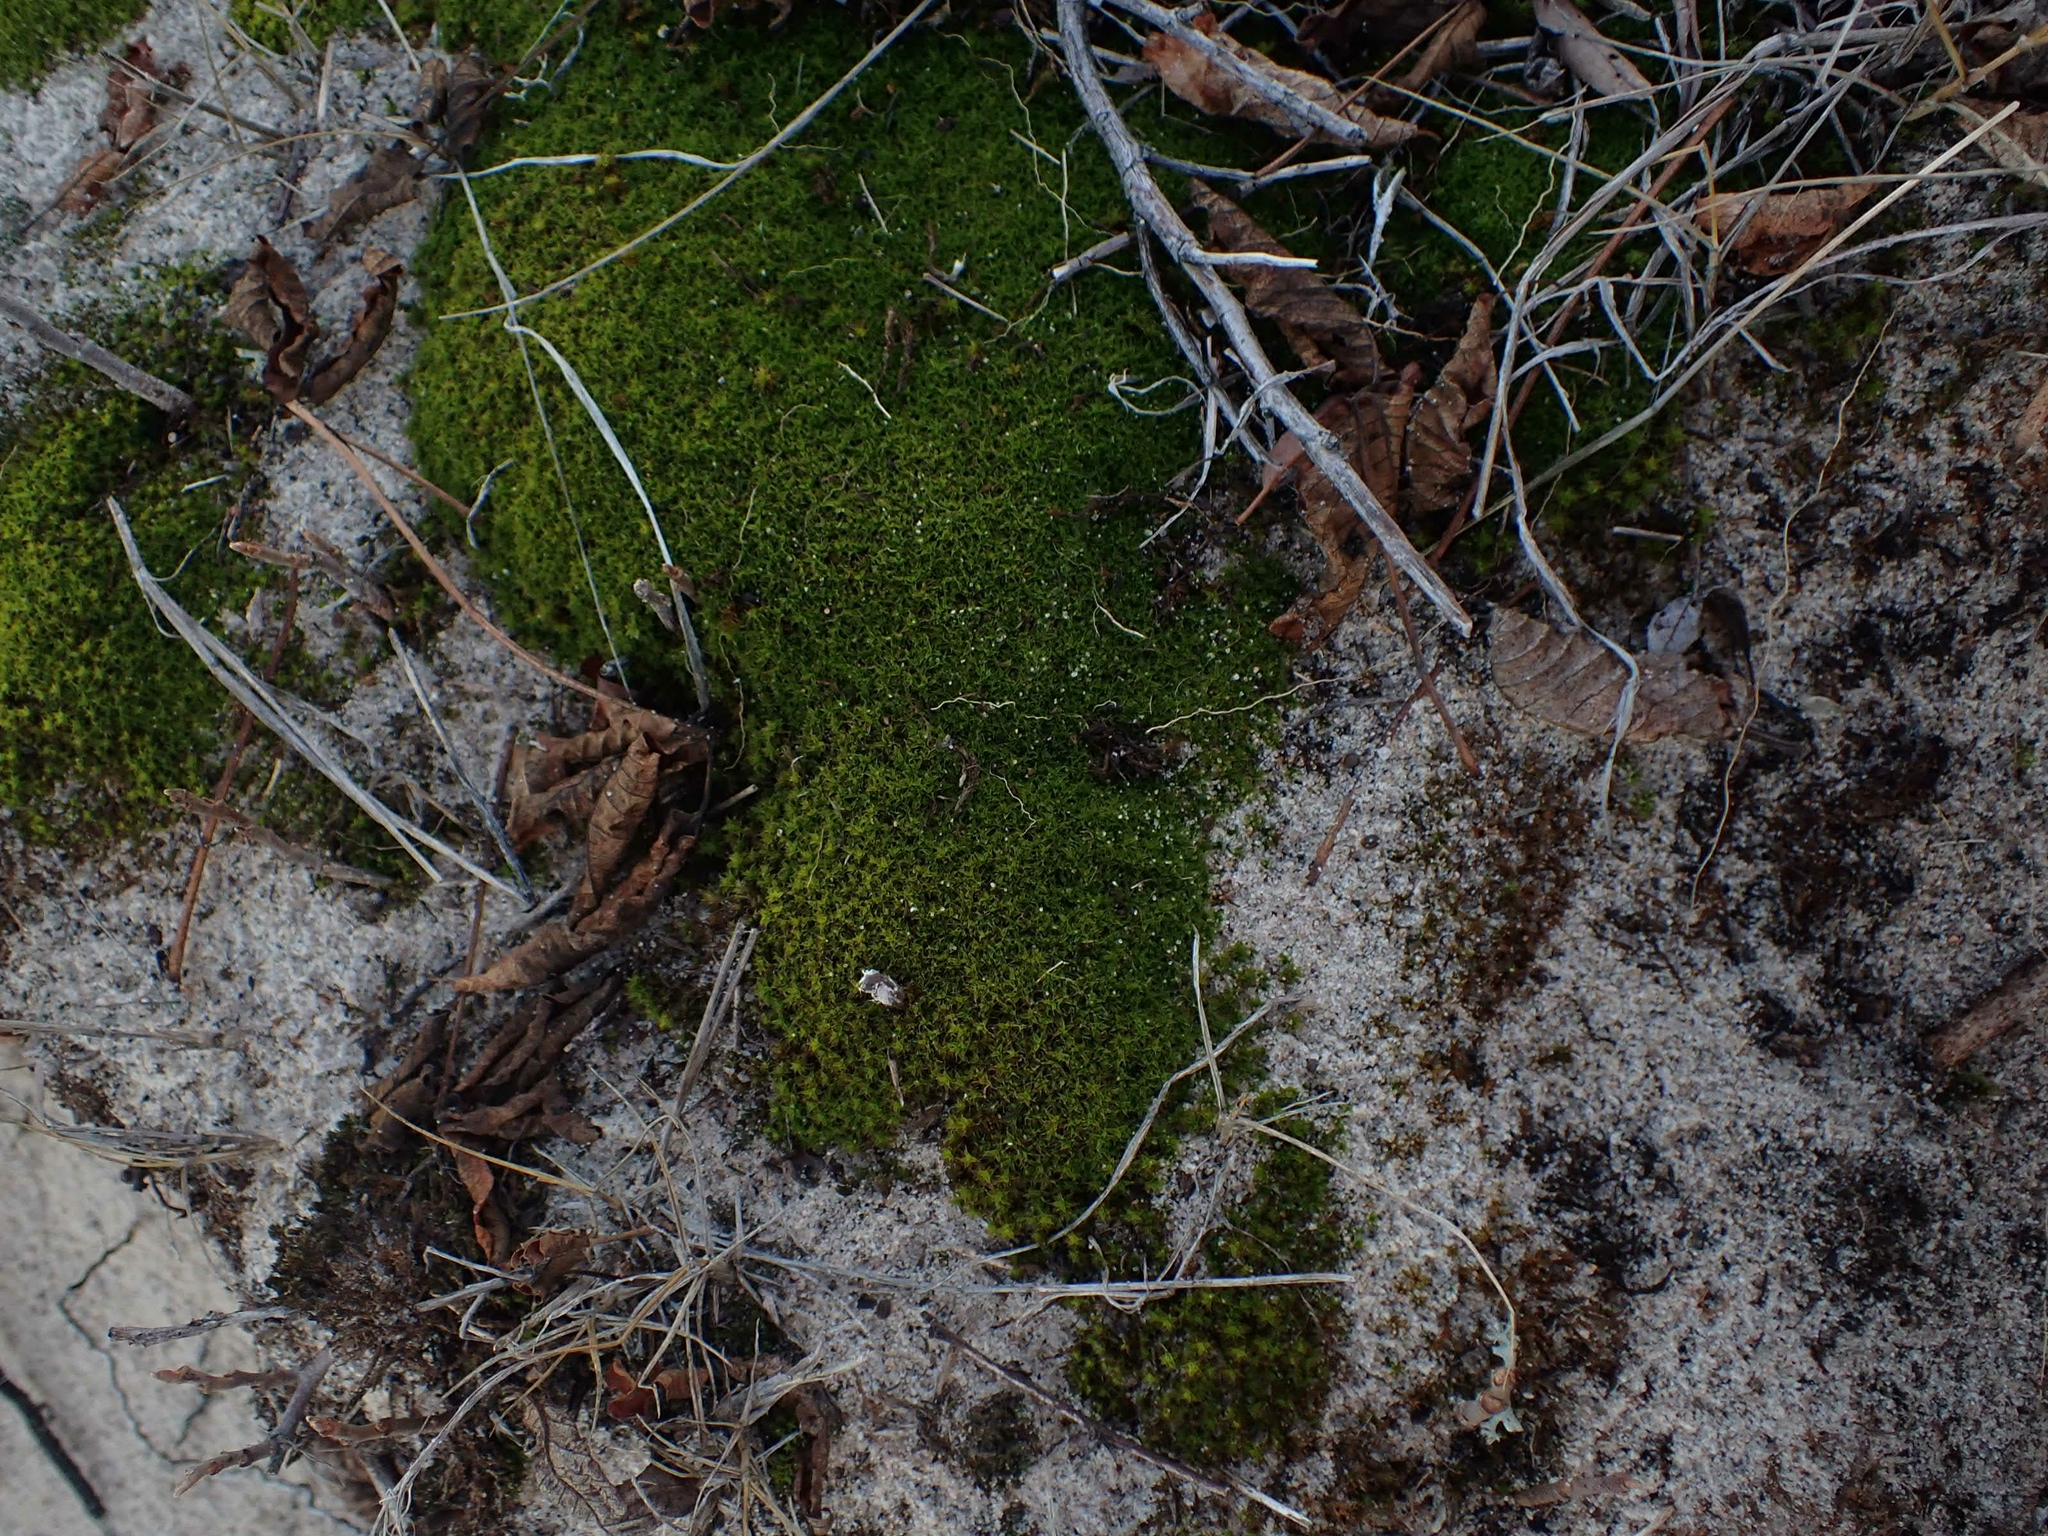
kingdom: Plantae
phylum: Bryophyta
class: Bryopsida
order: Pottiales
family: Pottiaceae
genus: Syntrichia
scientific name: Syntrichia ruralis
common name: Sidewalk screw moss
